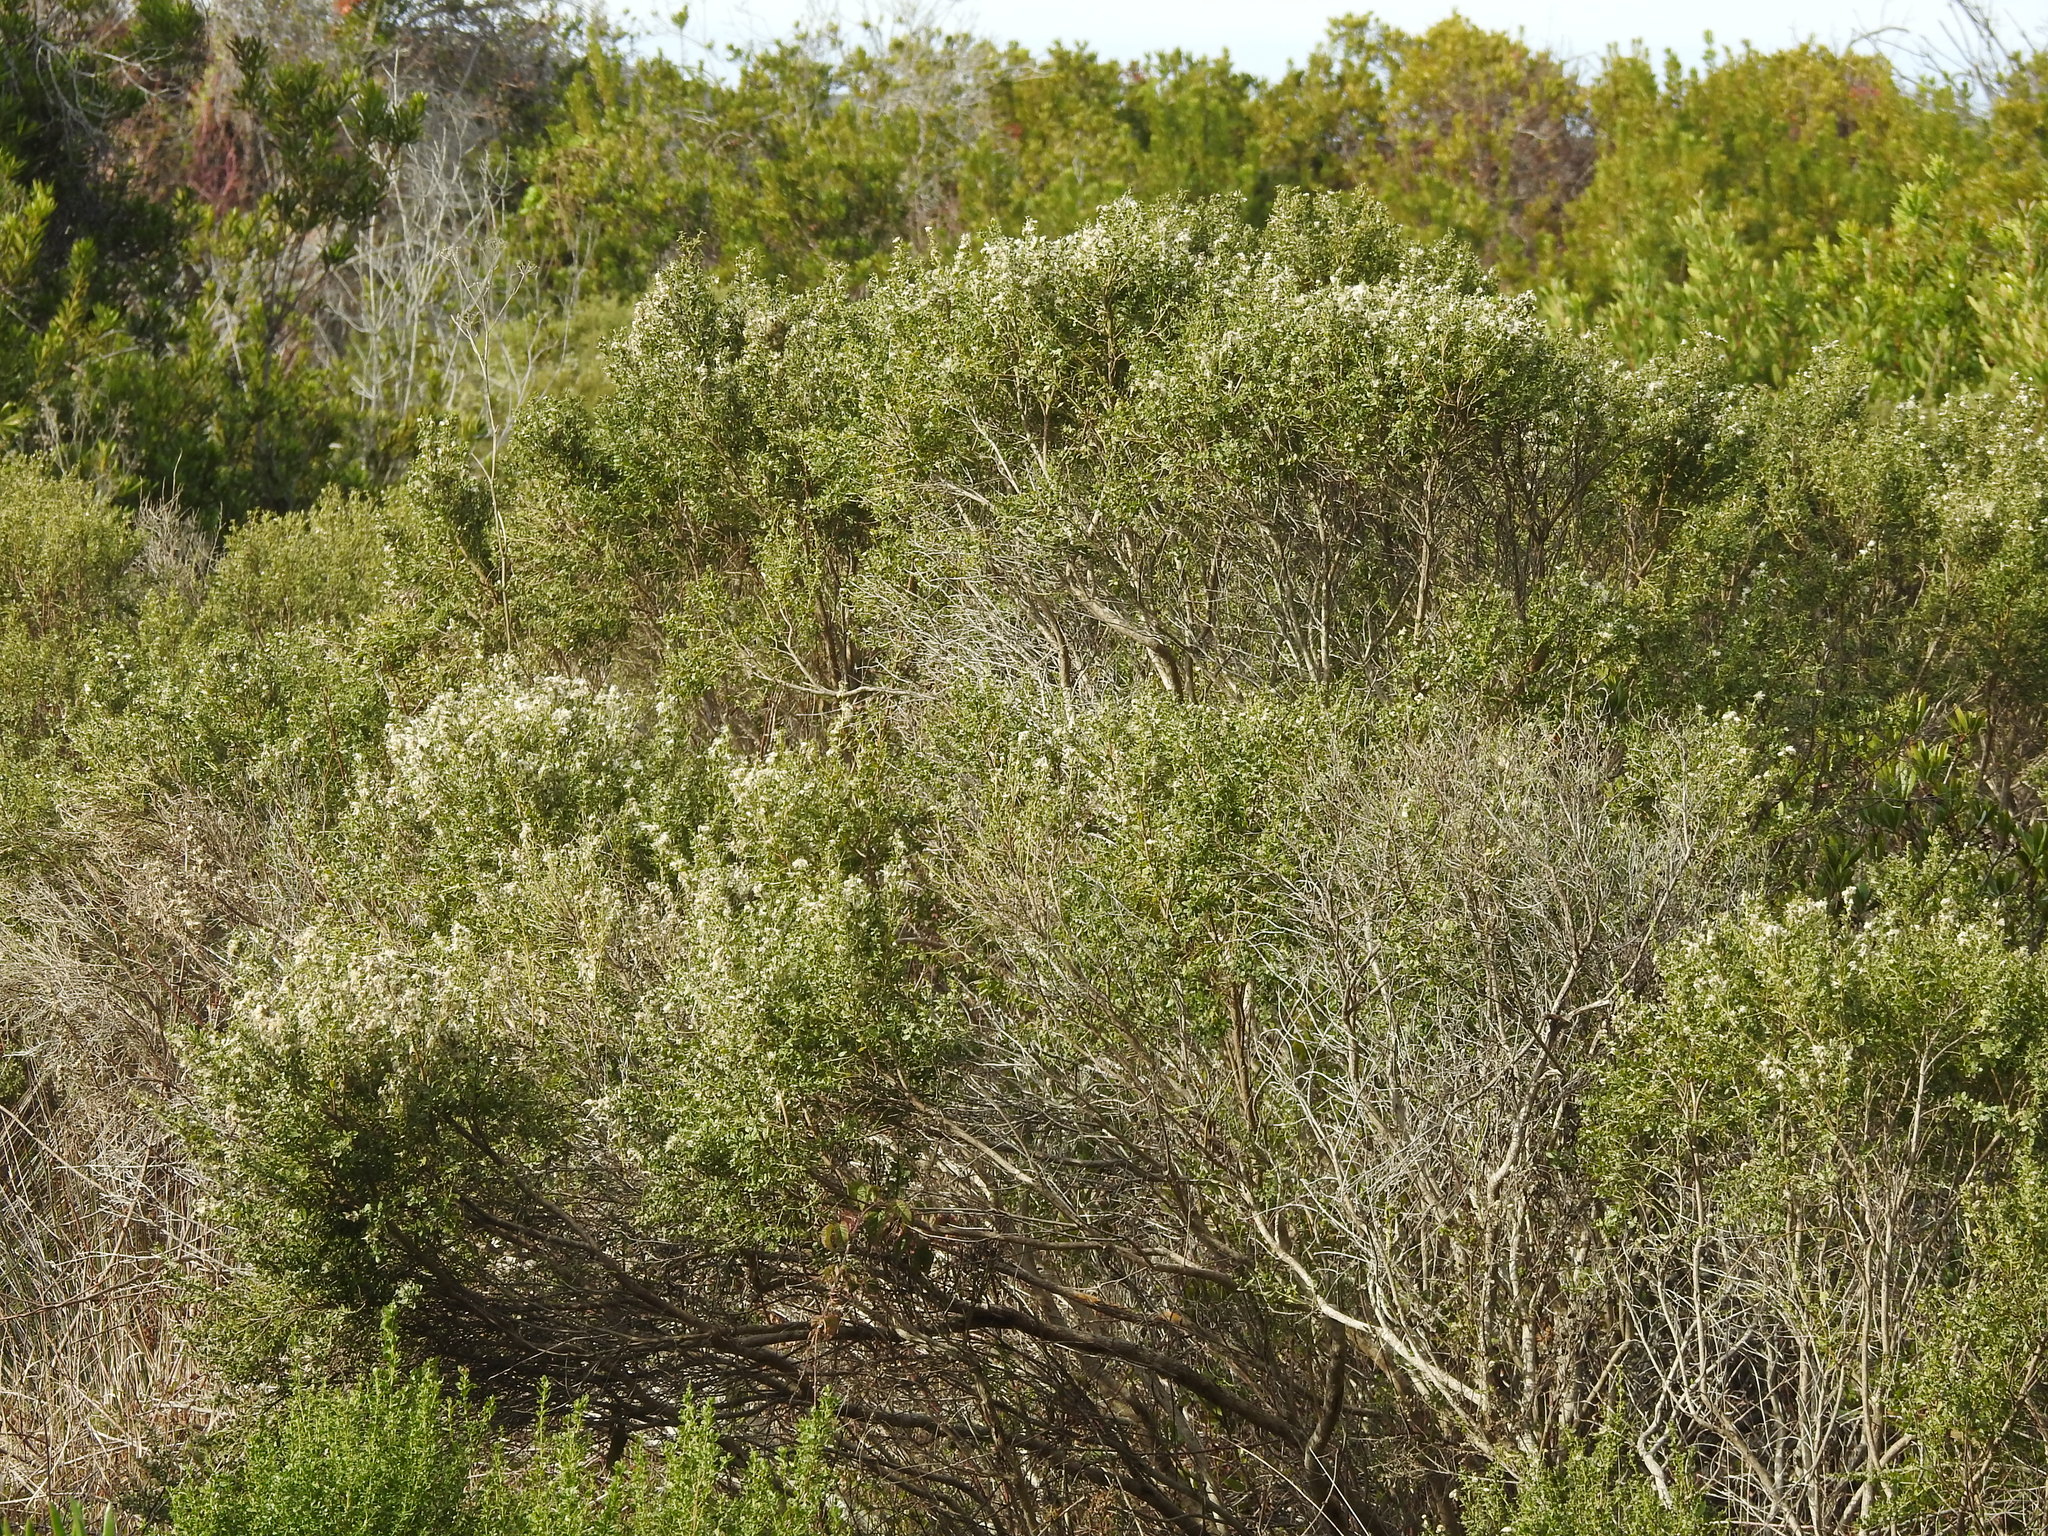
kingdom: Plantae
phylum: Tracheophyta
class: Magnoliopsida
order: Asterales
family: Asteraceae
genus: Baccharis
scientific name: Baccharis pilularis
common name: Coyotebrush
